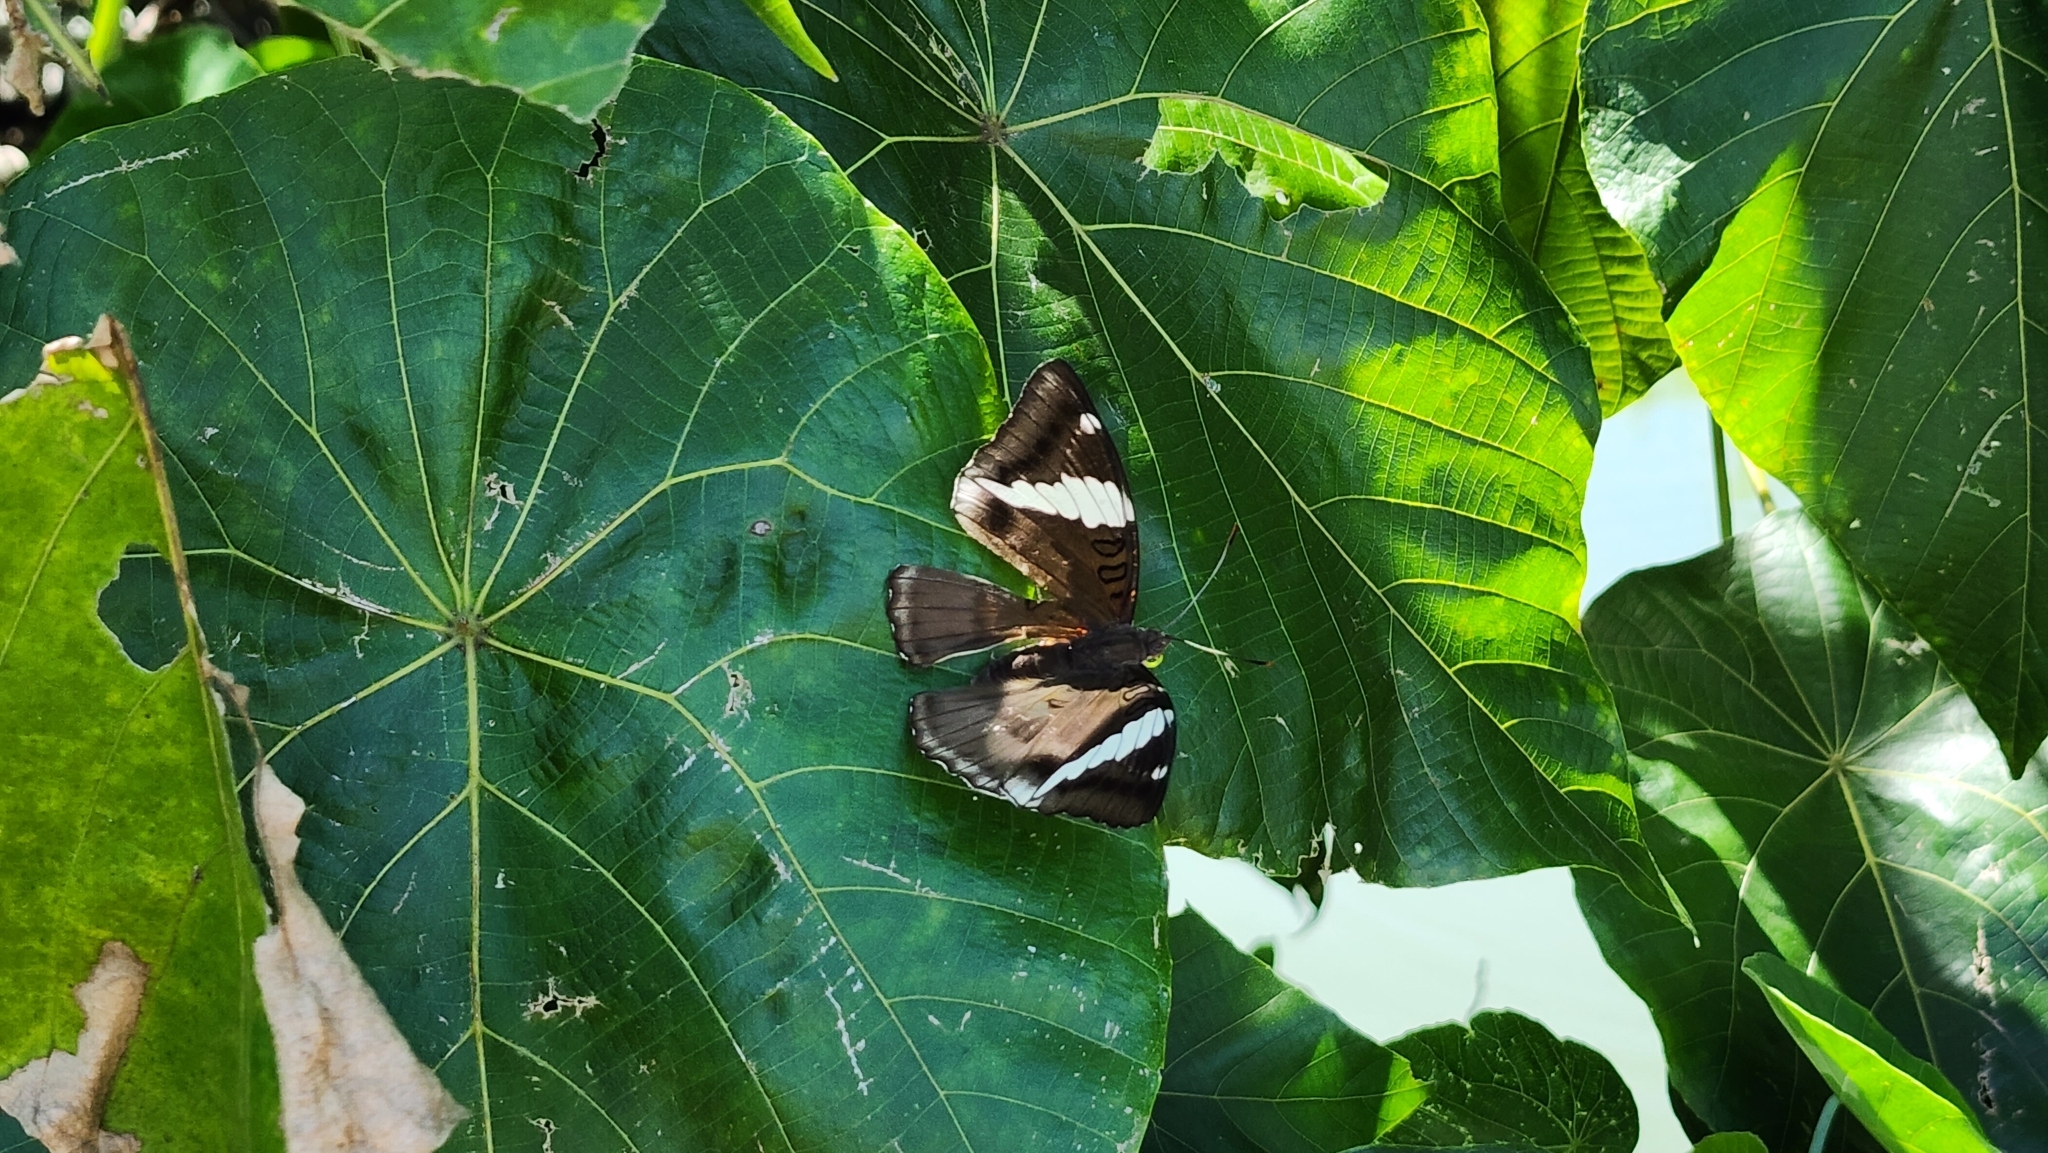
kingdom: Animalia
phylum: Arthropoda
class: Insecta
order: Lepidoptera
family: Nymphalidae
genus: Euthalia
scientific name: Euthalia phemius
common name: White-edged blue baron
